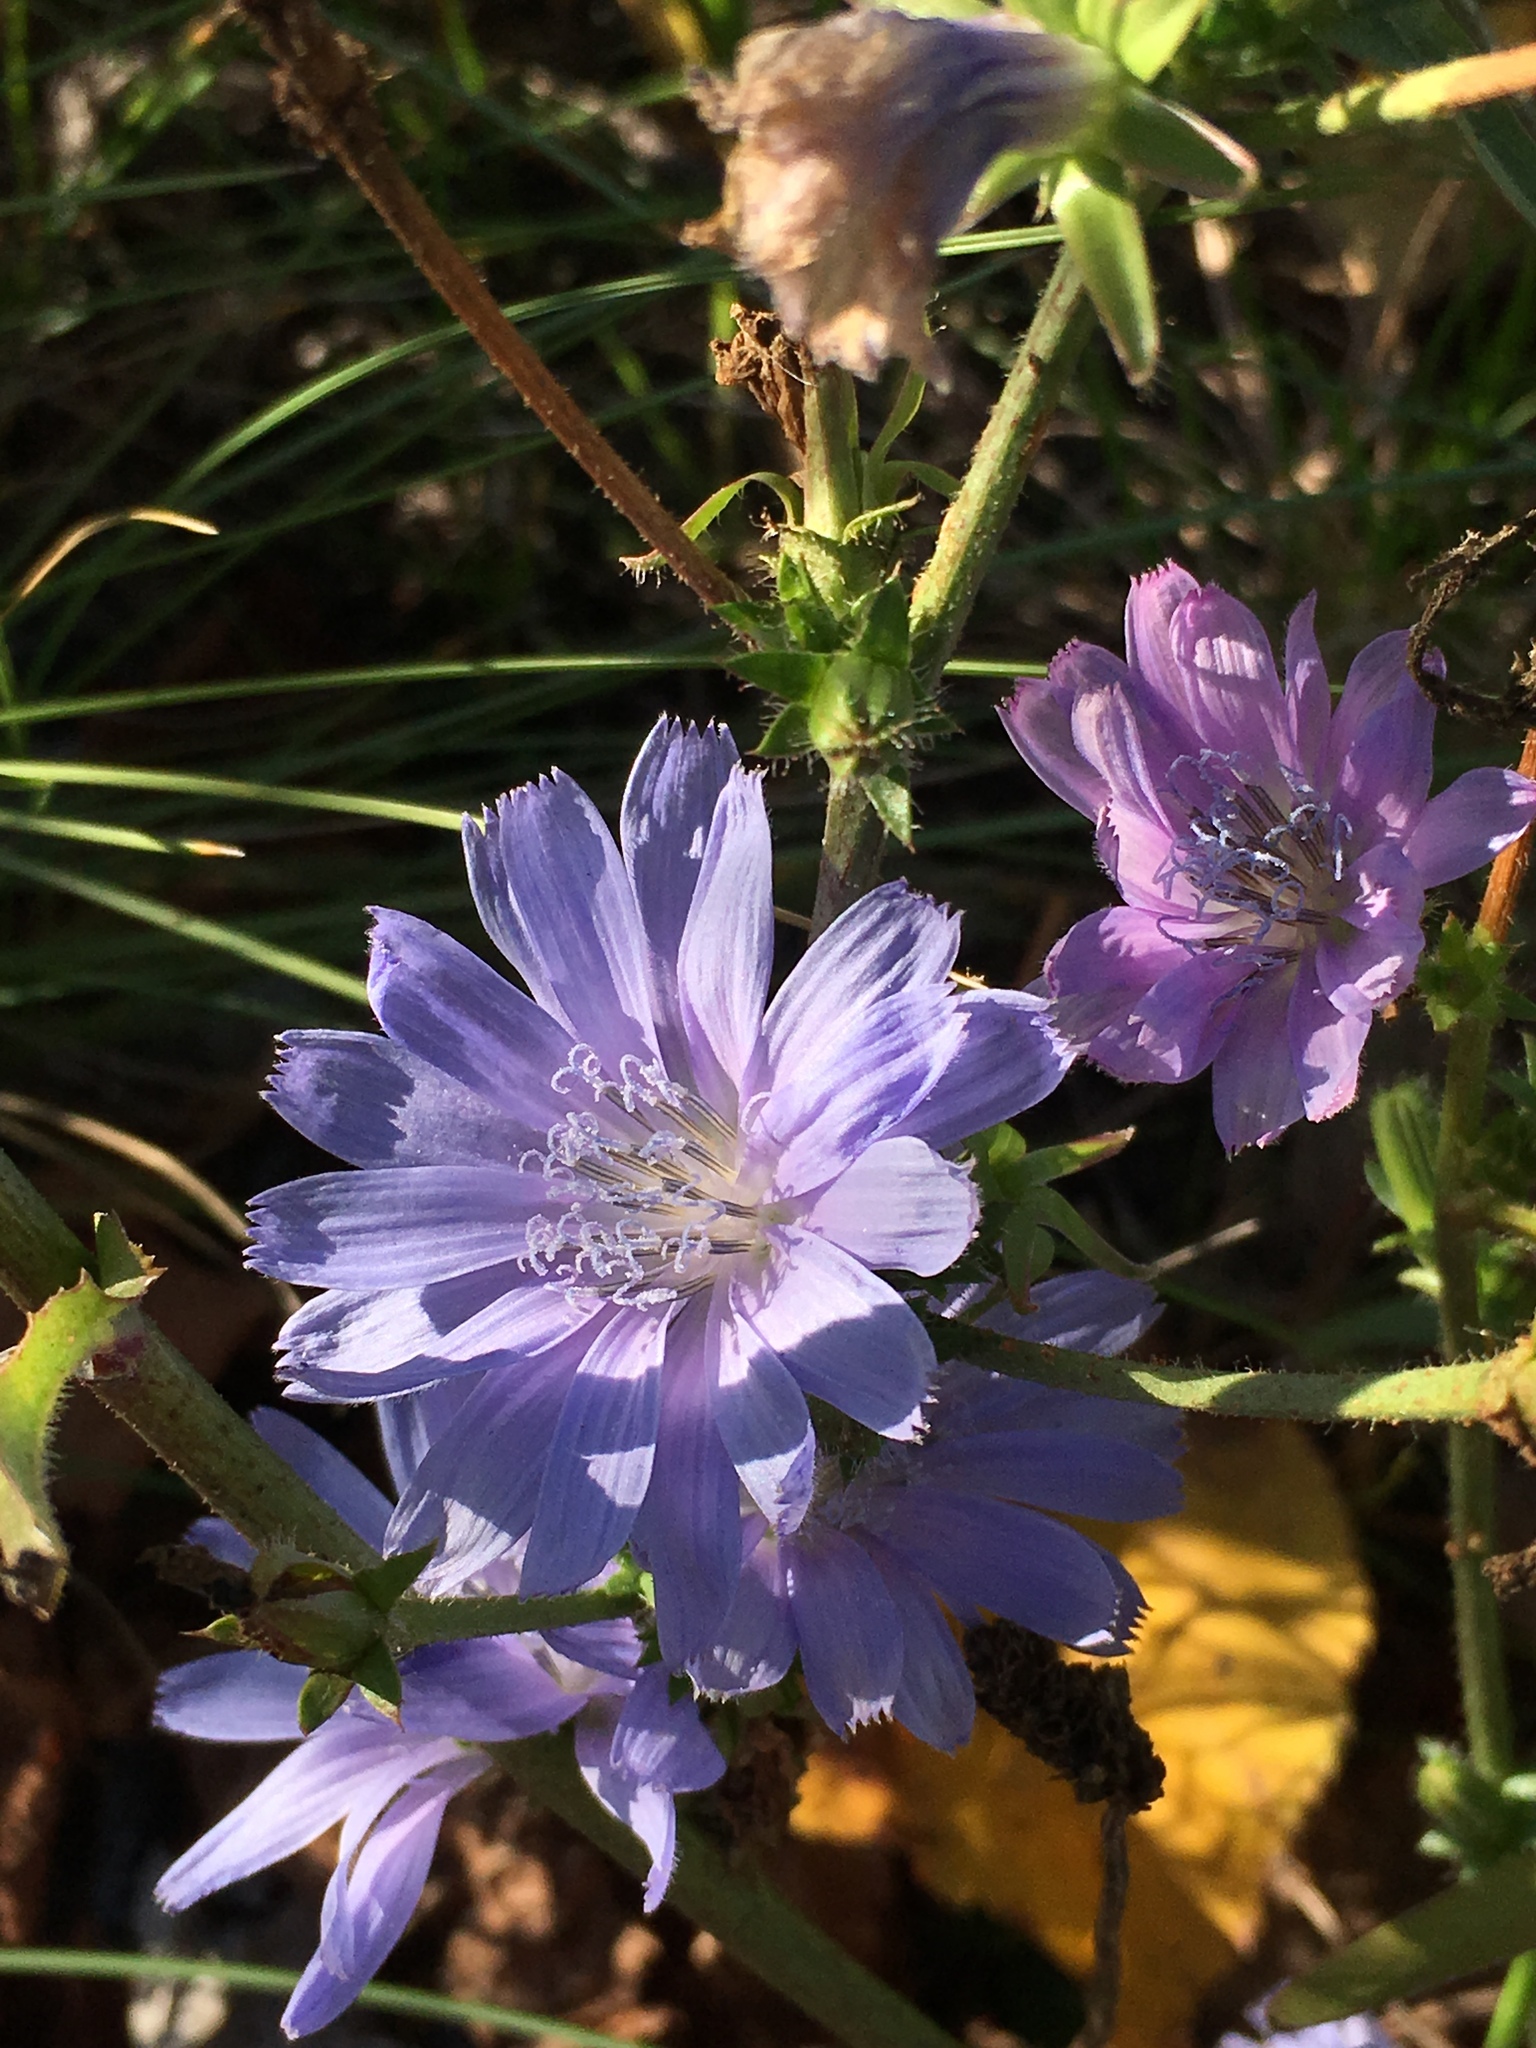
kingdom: Plantae
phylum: Tracheophyta
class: Magnoliopsida
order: Asterales
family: Asteraceae
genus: Cichorium
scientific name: Cichorium intybus
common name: Chicory
